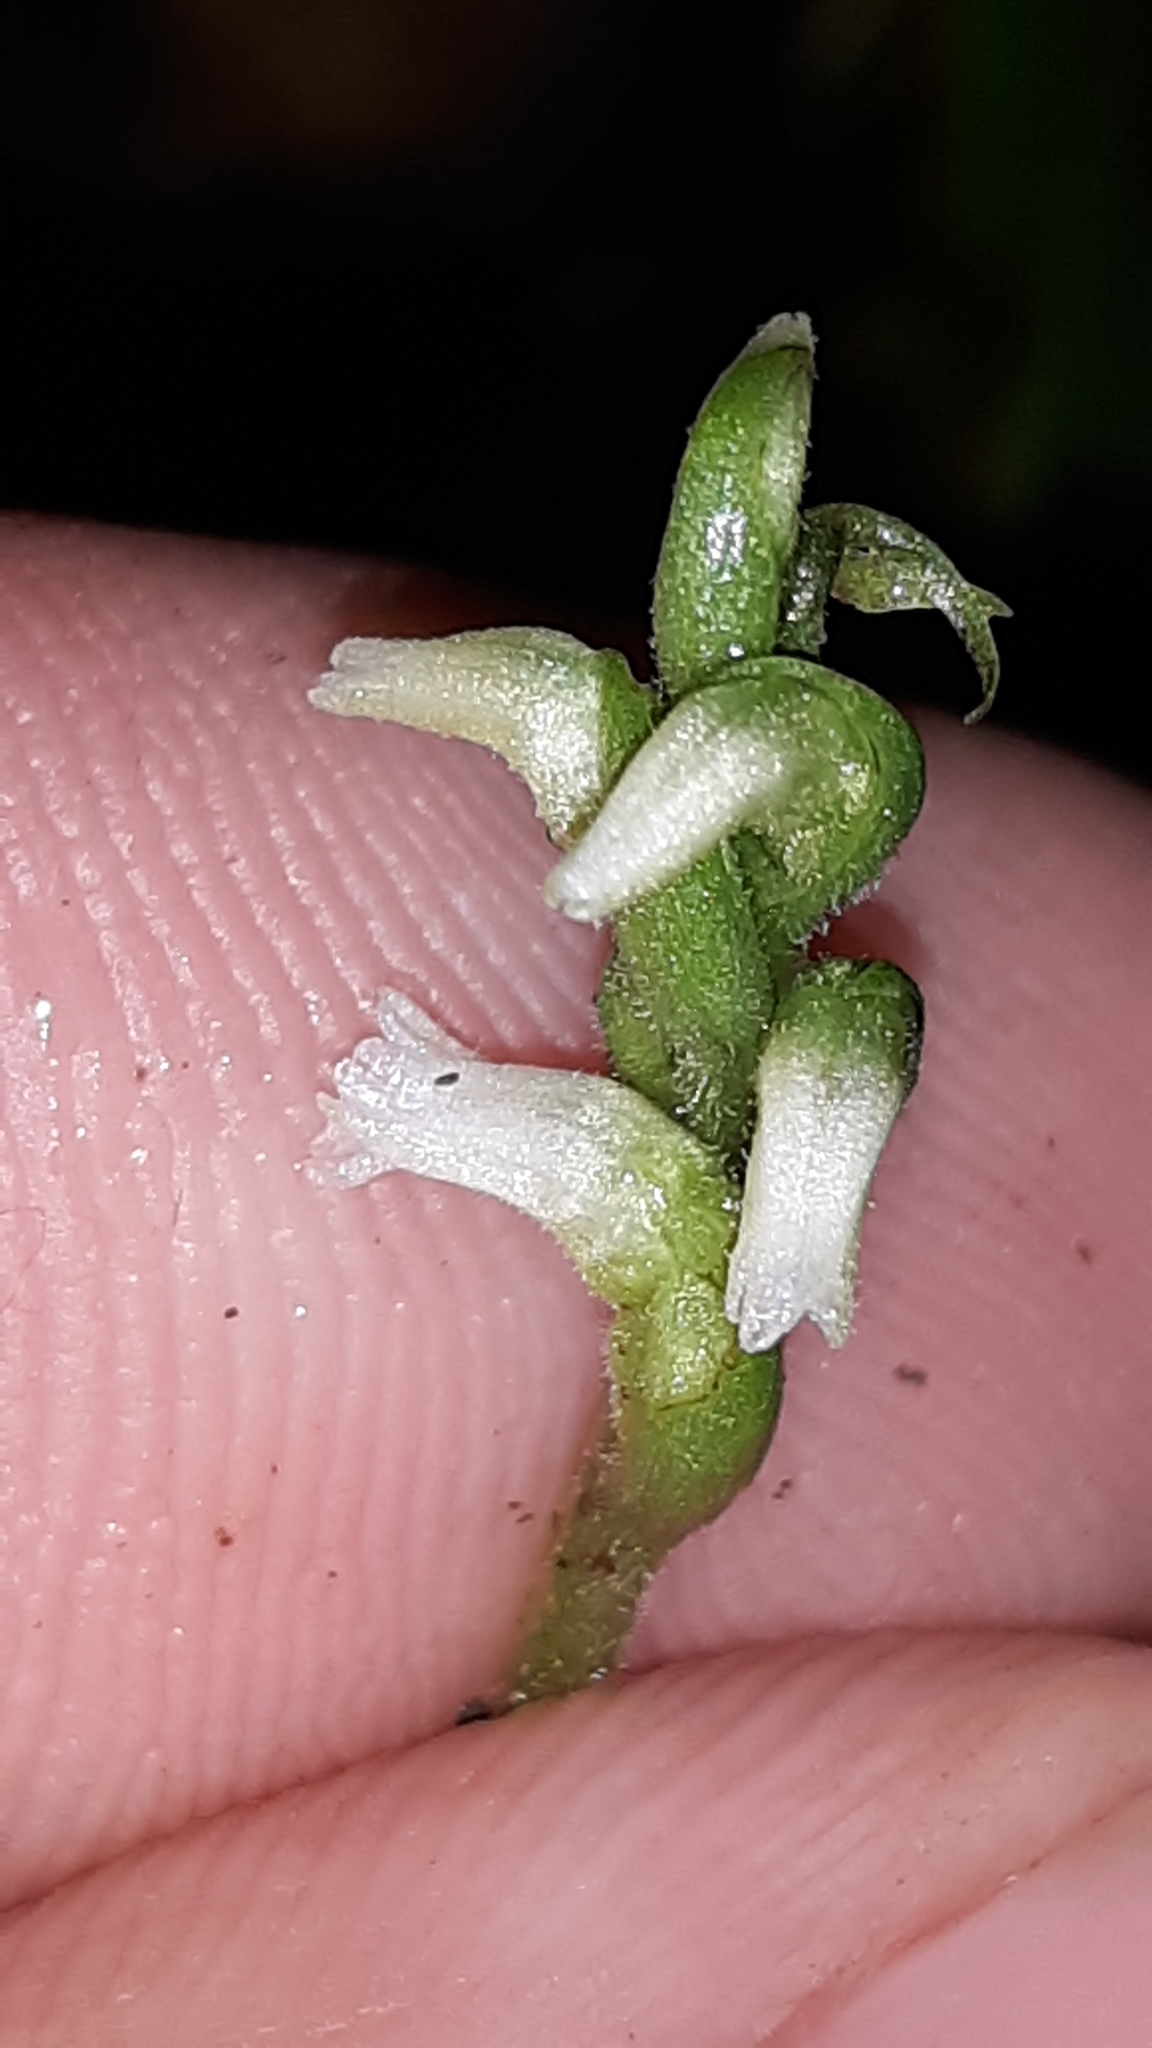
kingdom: Plantae
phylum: Tracheophyta
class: Liliopsida
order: Asparagales
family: Orchidaceae
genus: Spiranthes
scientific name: Spiranthes ovalis
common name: October ladies'-tresses
